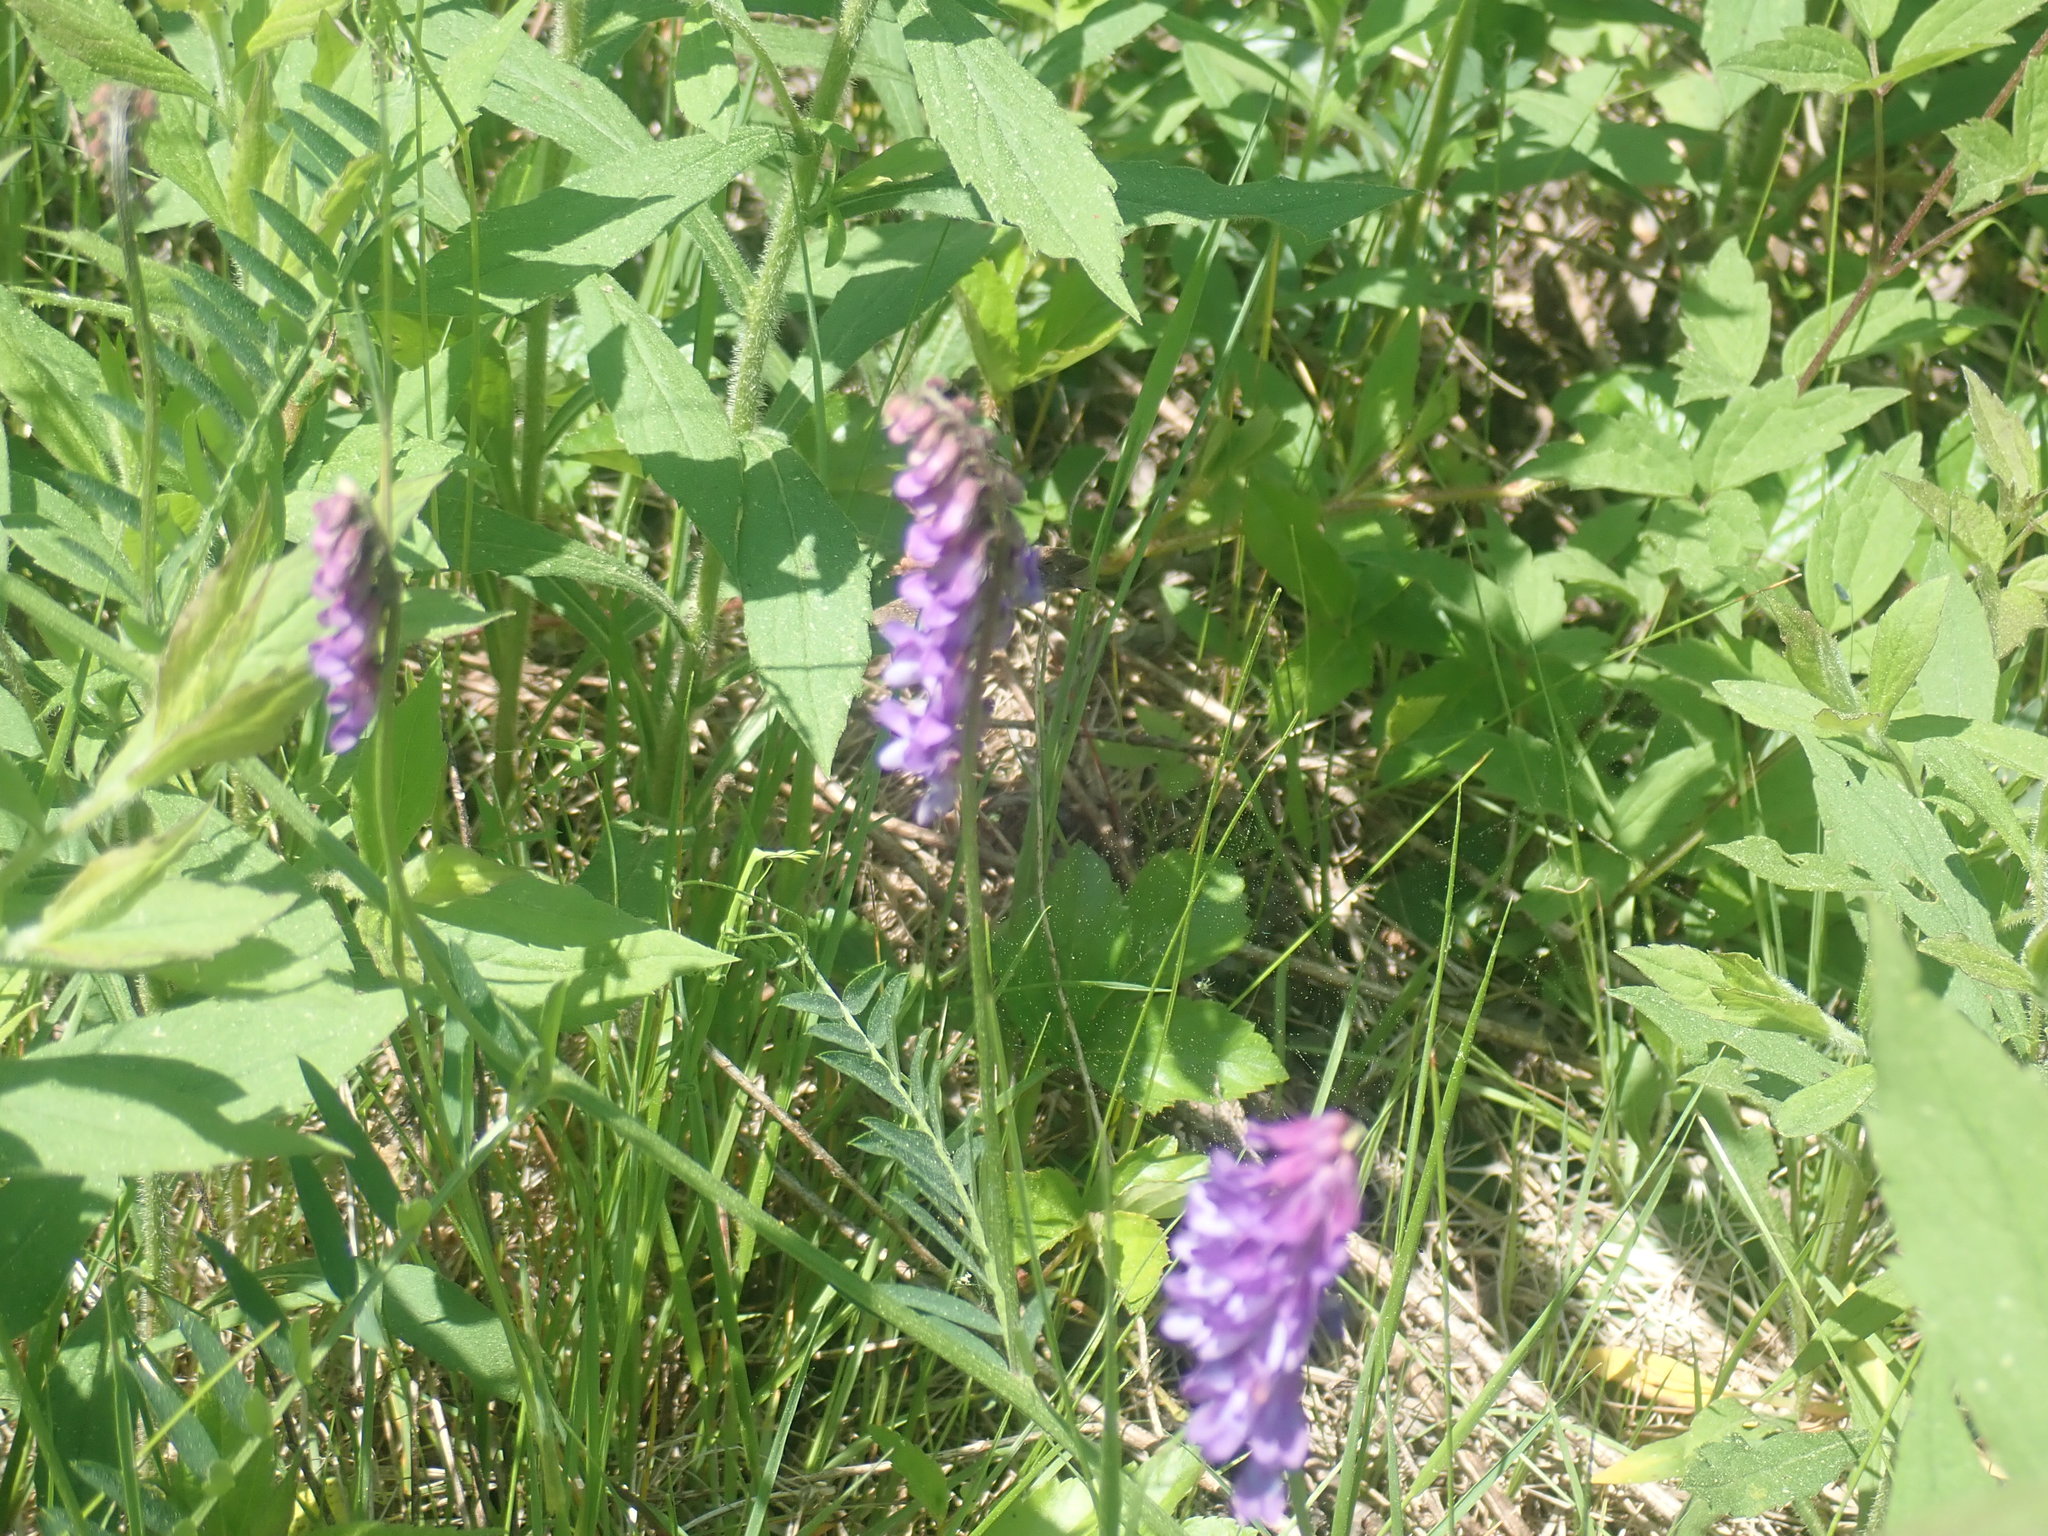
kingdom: Plantae
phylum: Tracheophyta
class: Magnoliopsida
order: Fabales
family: Fabaceae
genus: Vicia
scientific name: Vicia cracca
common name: Bird vetch
